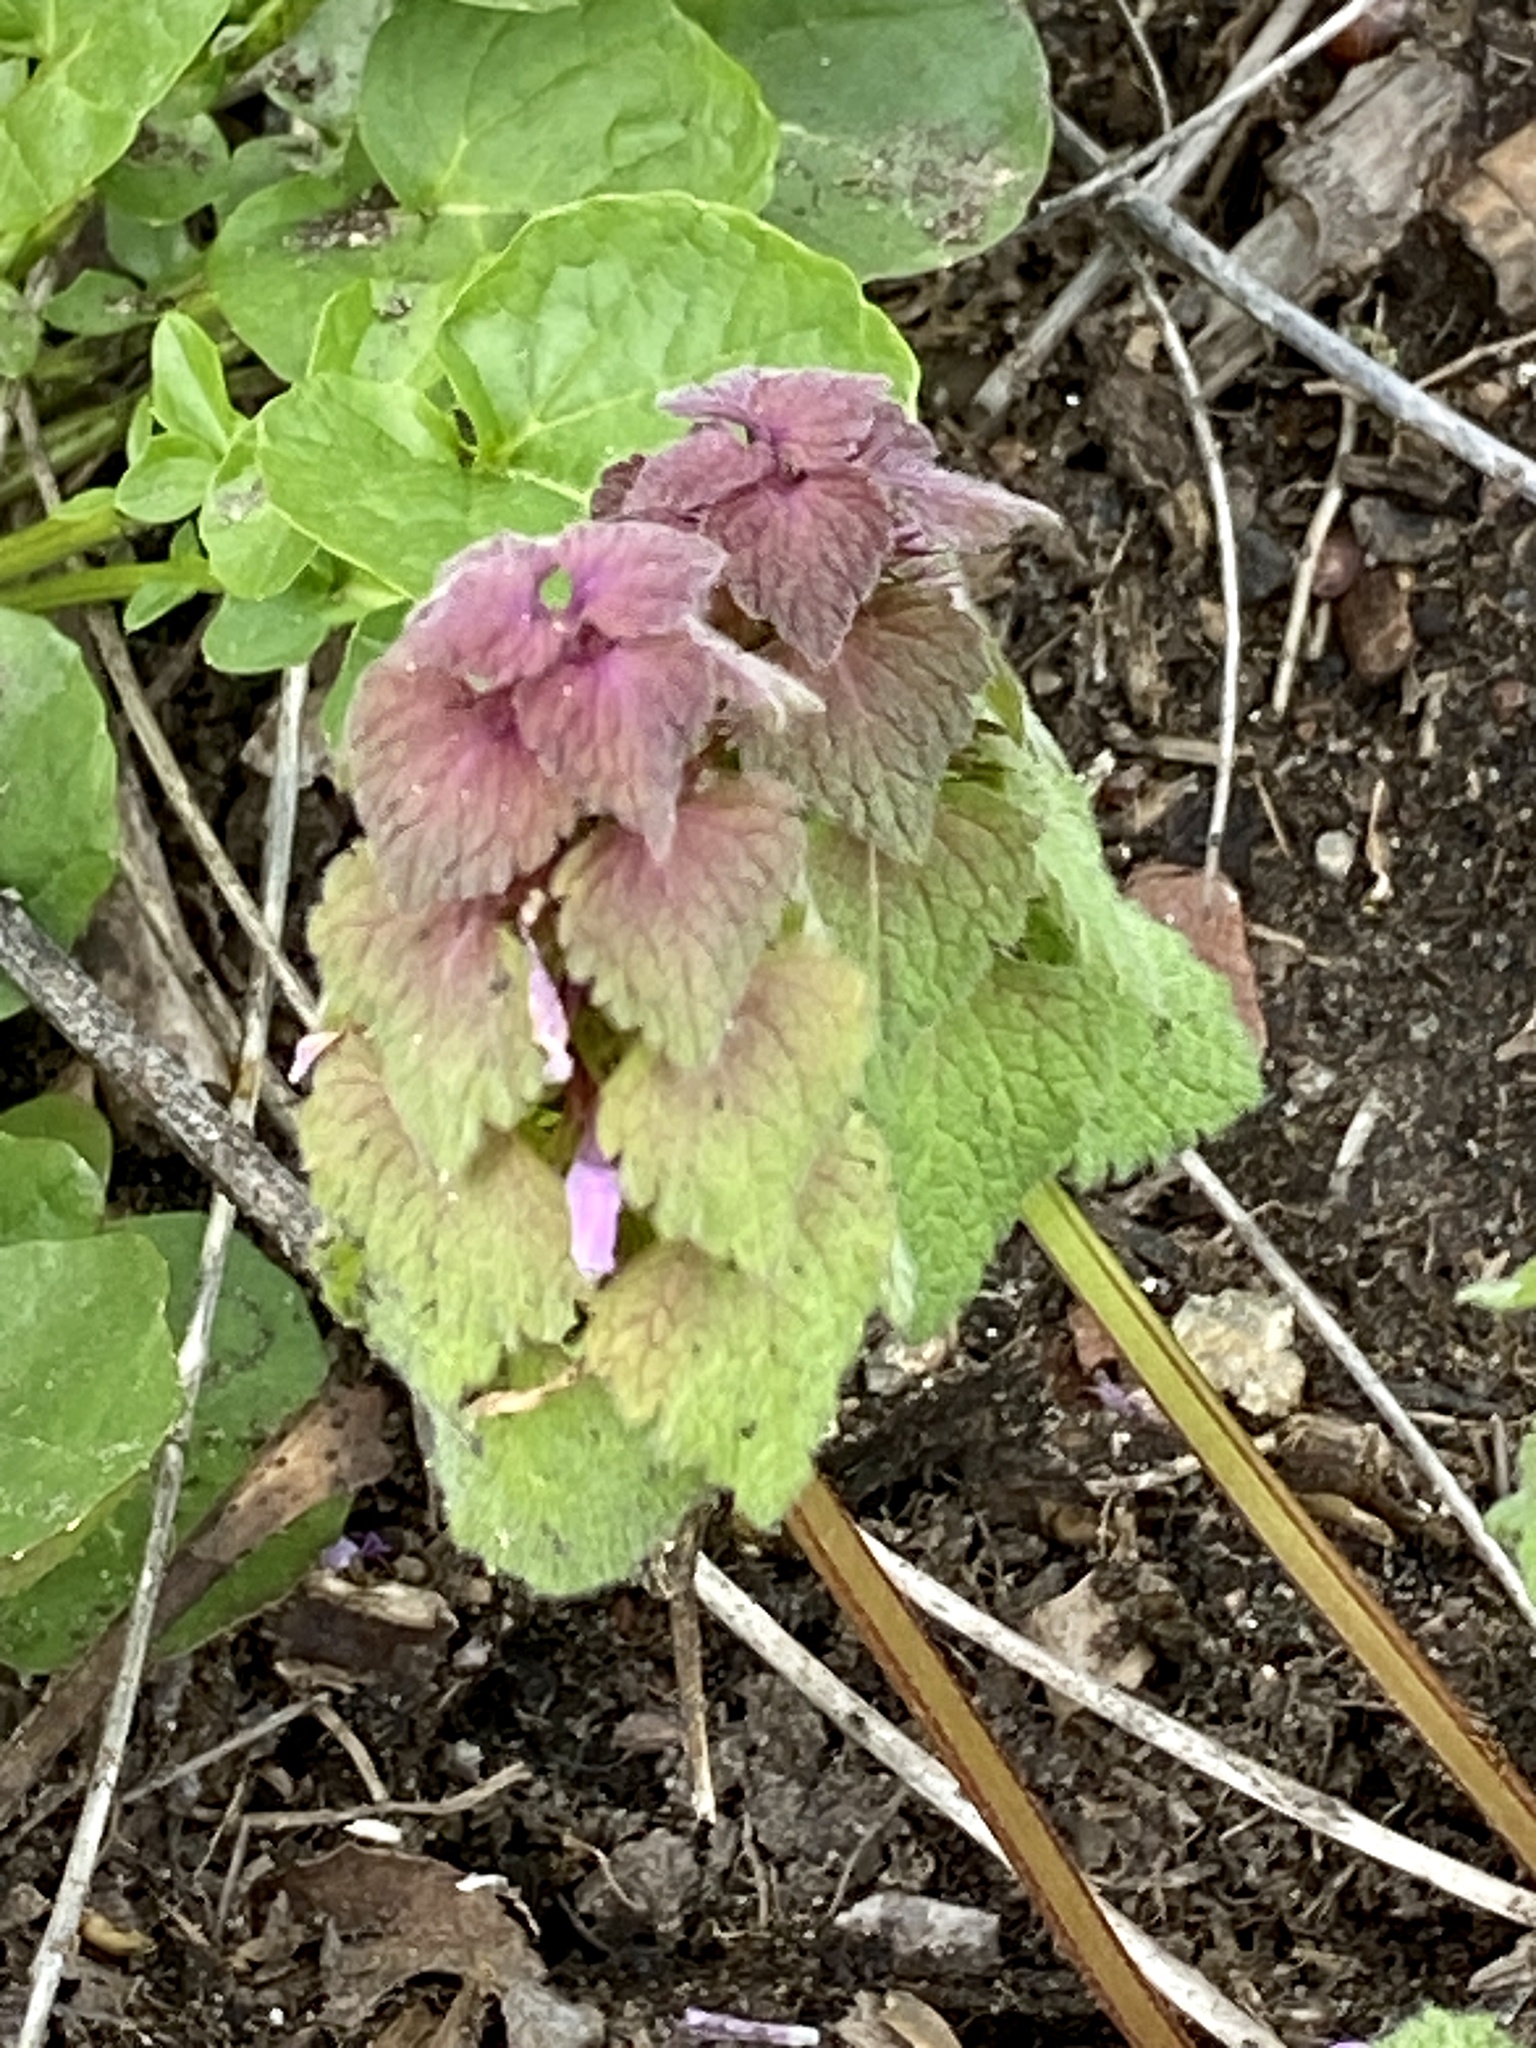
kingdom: Plantae
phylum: Tracheophyta
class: Magnoliopsida
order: Lamiales
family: Lamiaceae
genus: Lamium
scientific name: Lamium purpureum
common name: Red dead-nettle
